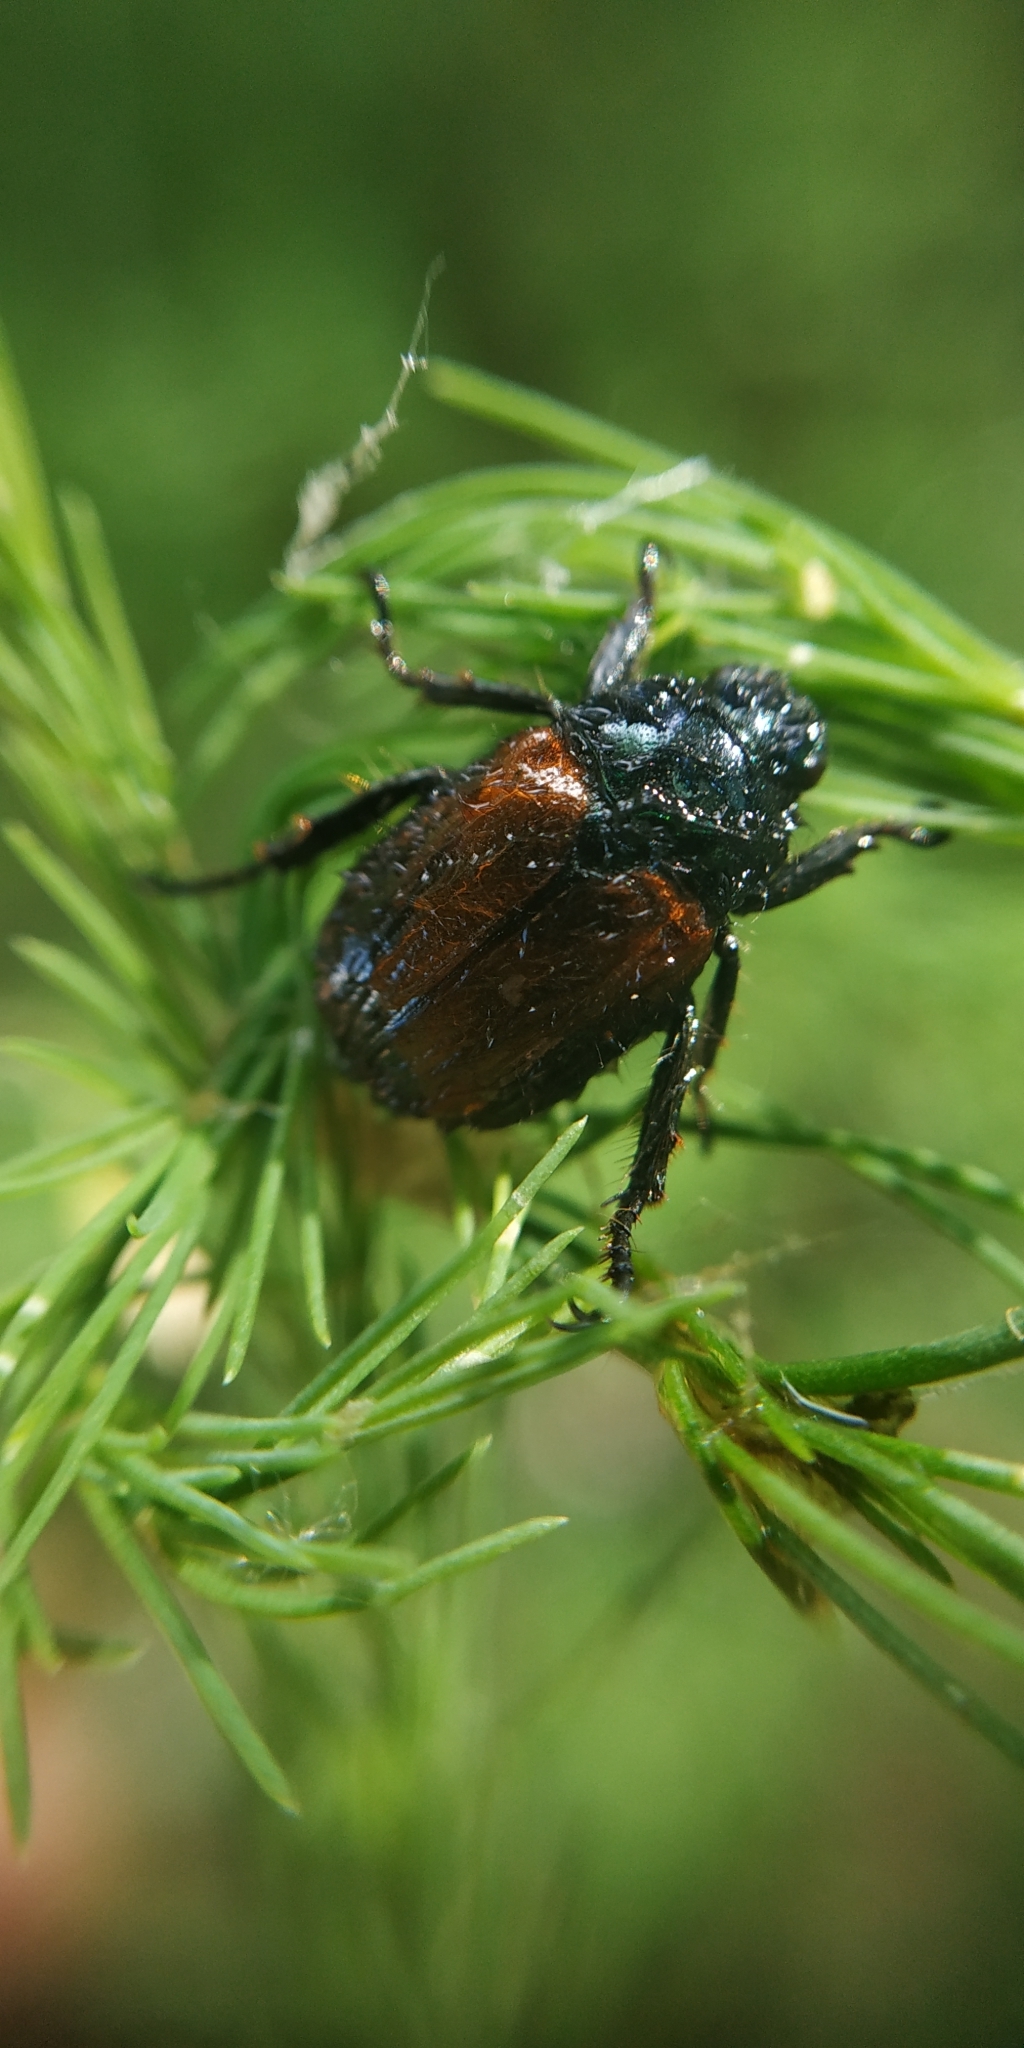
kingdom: Animalia
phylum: Arthropoda
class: Insecta
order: Coleoptera
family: Scarabaeidae
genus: Phyllopertha
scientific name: Phyllopertha horticola
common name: Garden chafer
